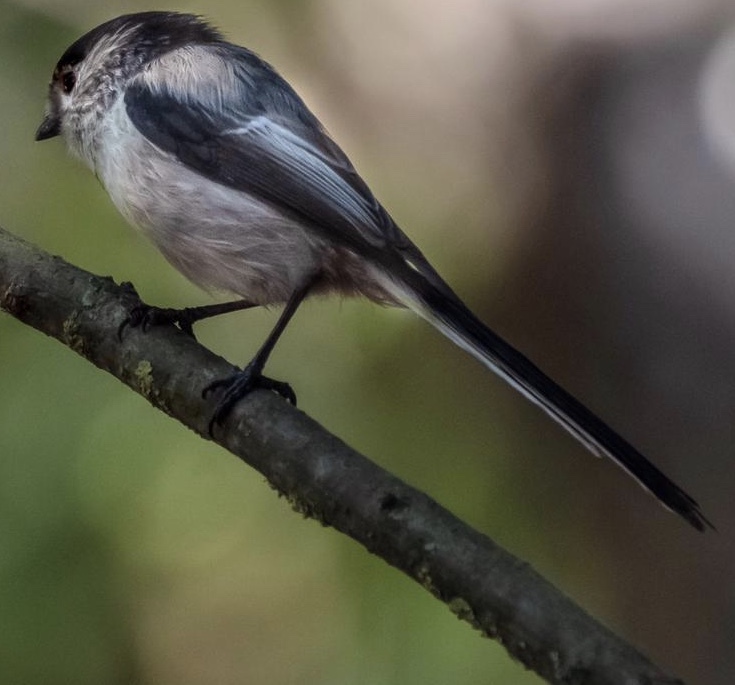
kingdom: Animalia
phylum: Chordata
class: Aves
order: Passeriformes
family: Aegithalidae
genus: Aegithalos
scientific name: Aegithalos caudatus
